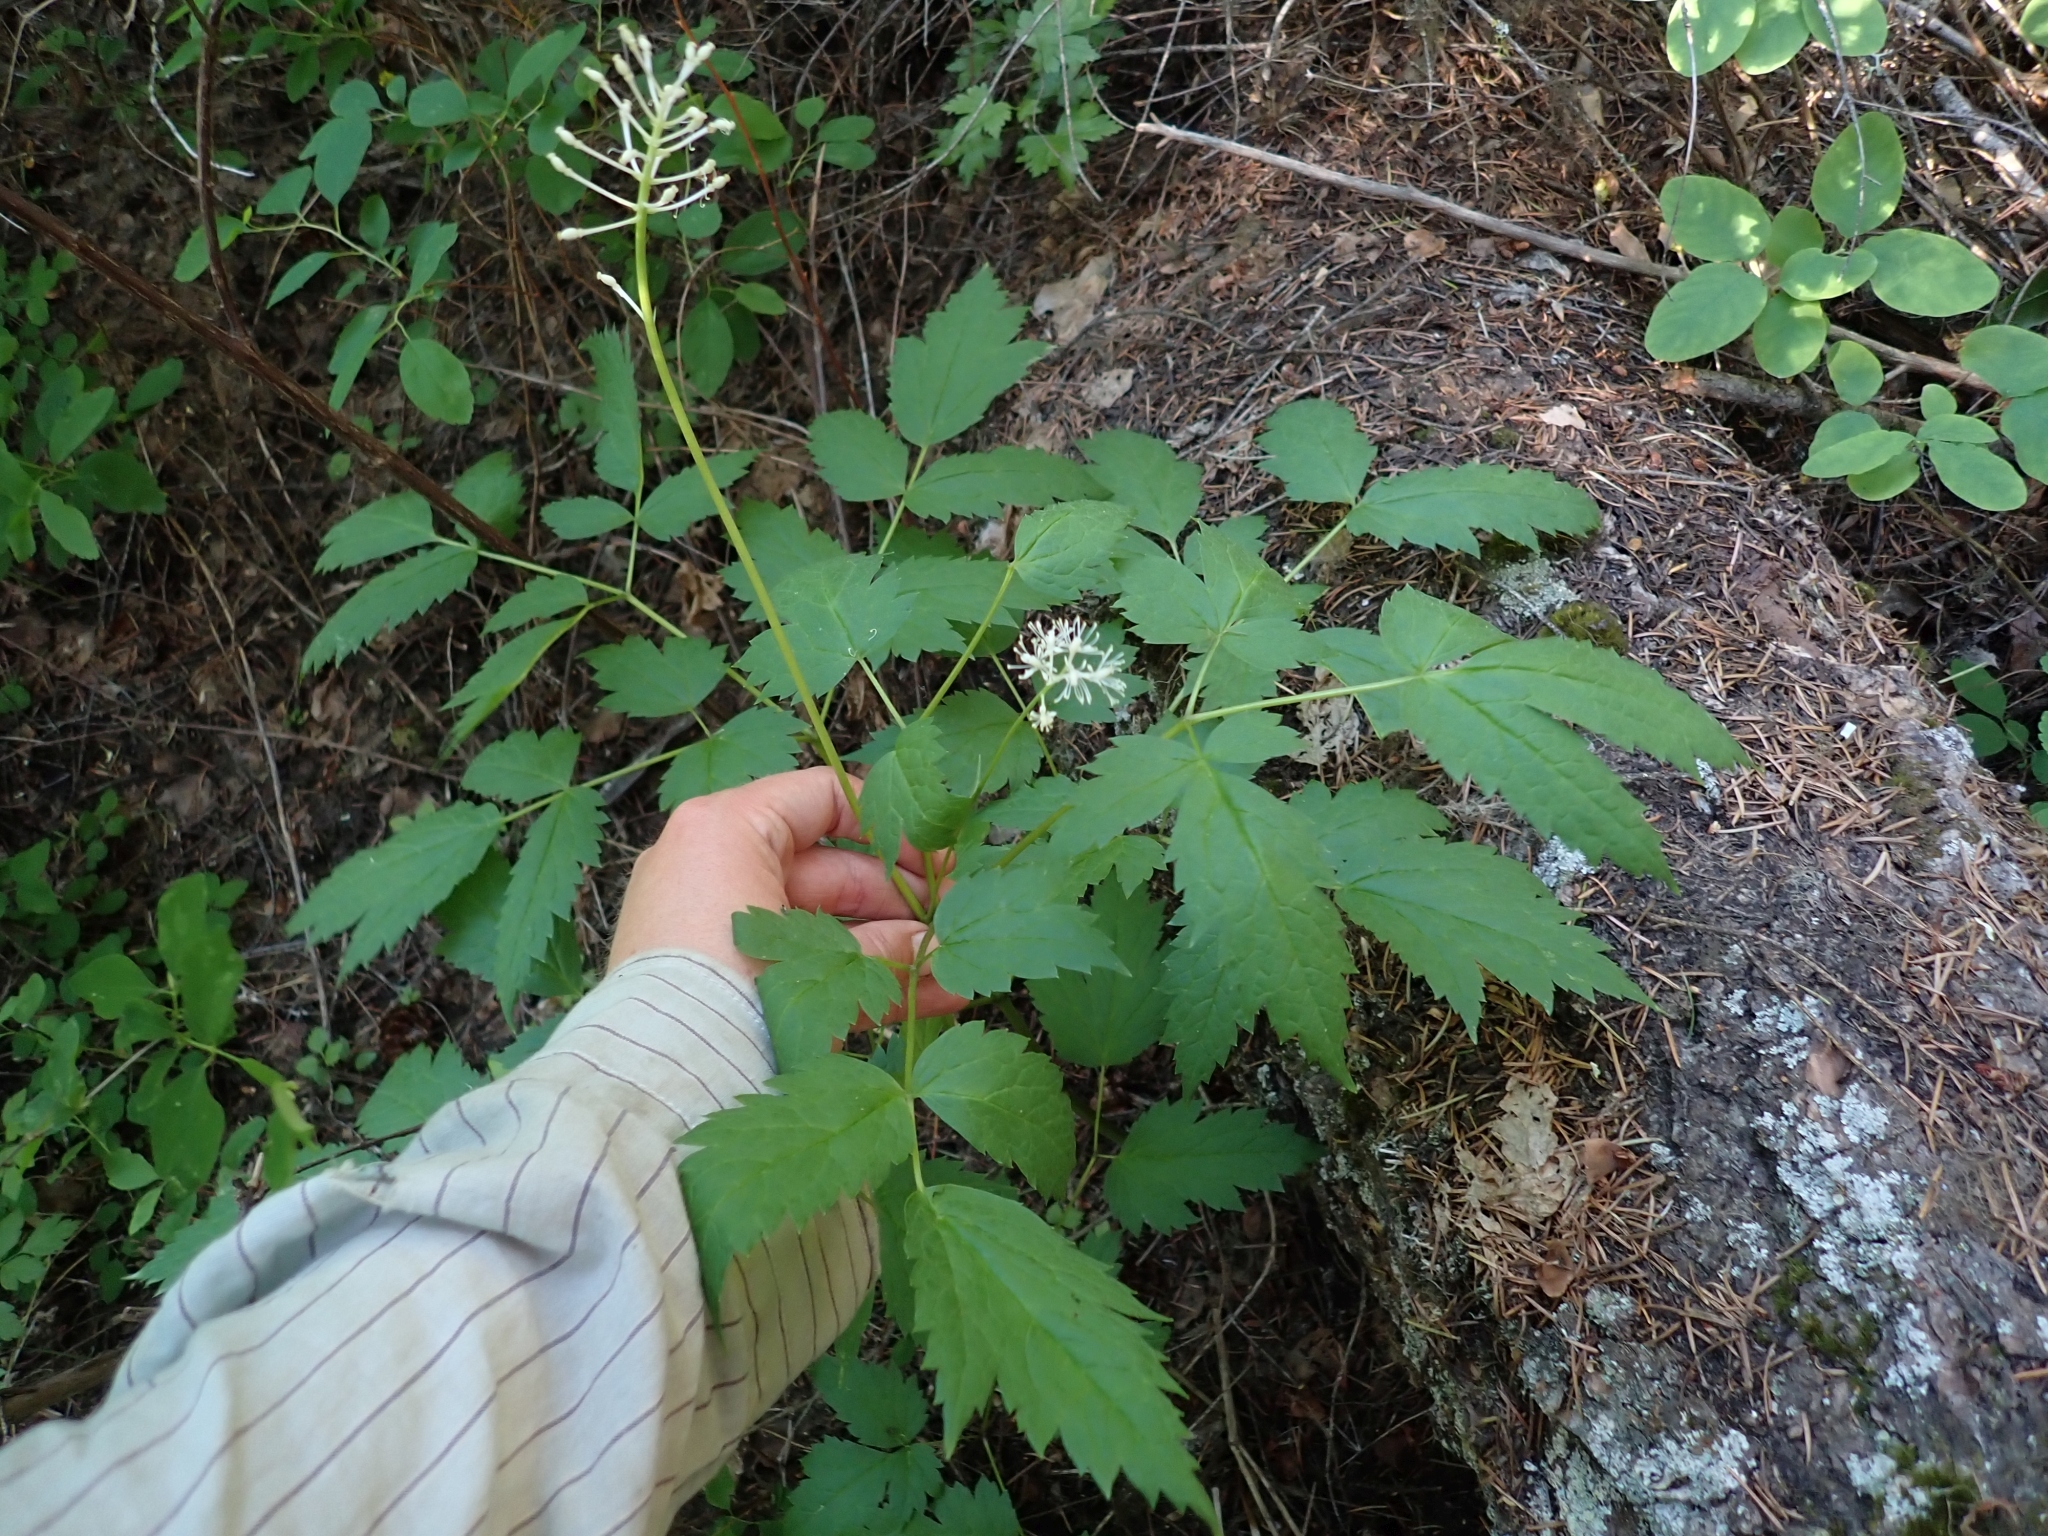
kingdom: Plantae
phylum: Tracheophyta
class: Magnoliopsida
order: Ranunculales
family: Ranunculaceae
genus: Actaea
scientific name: Actaea rubra
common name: Red baneberry
